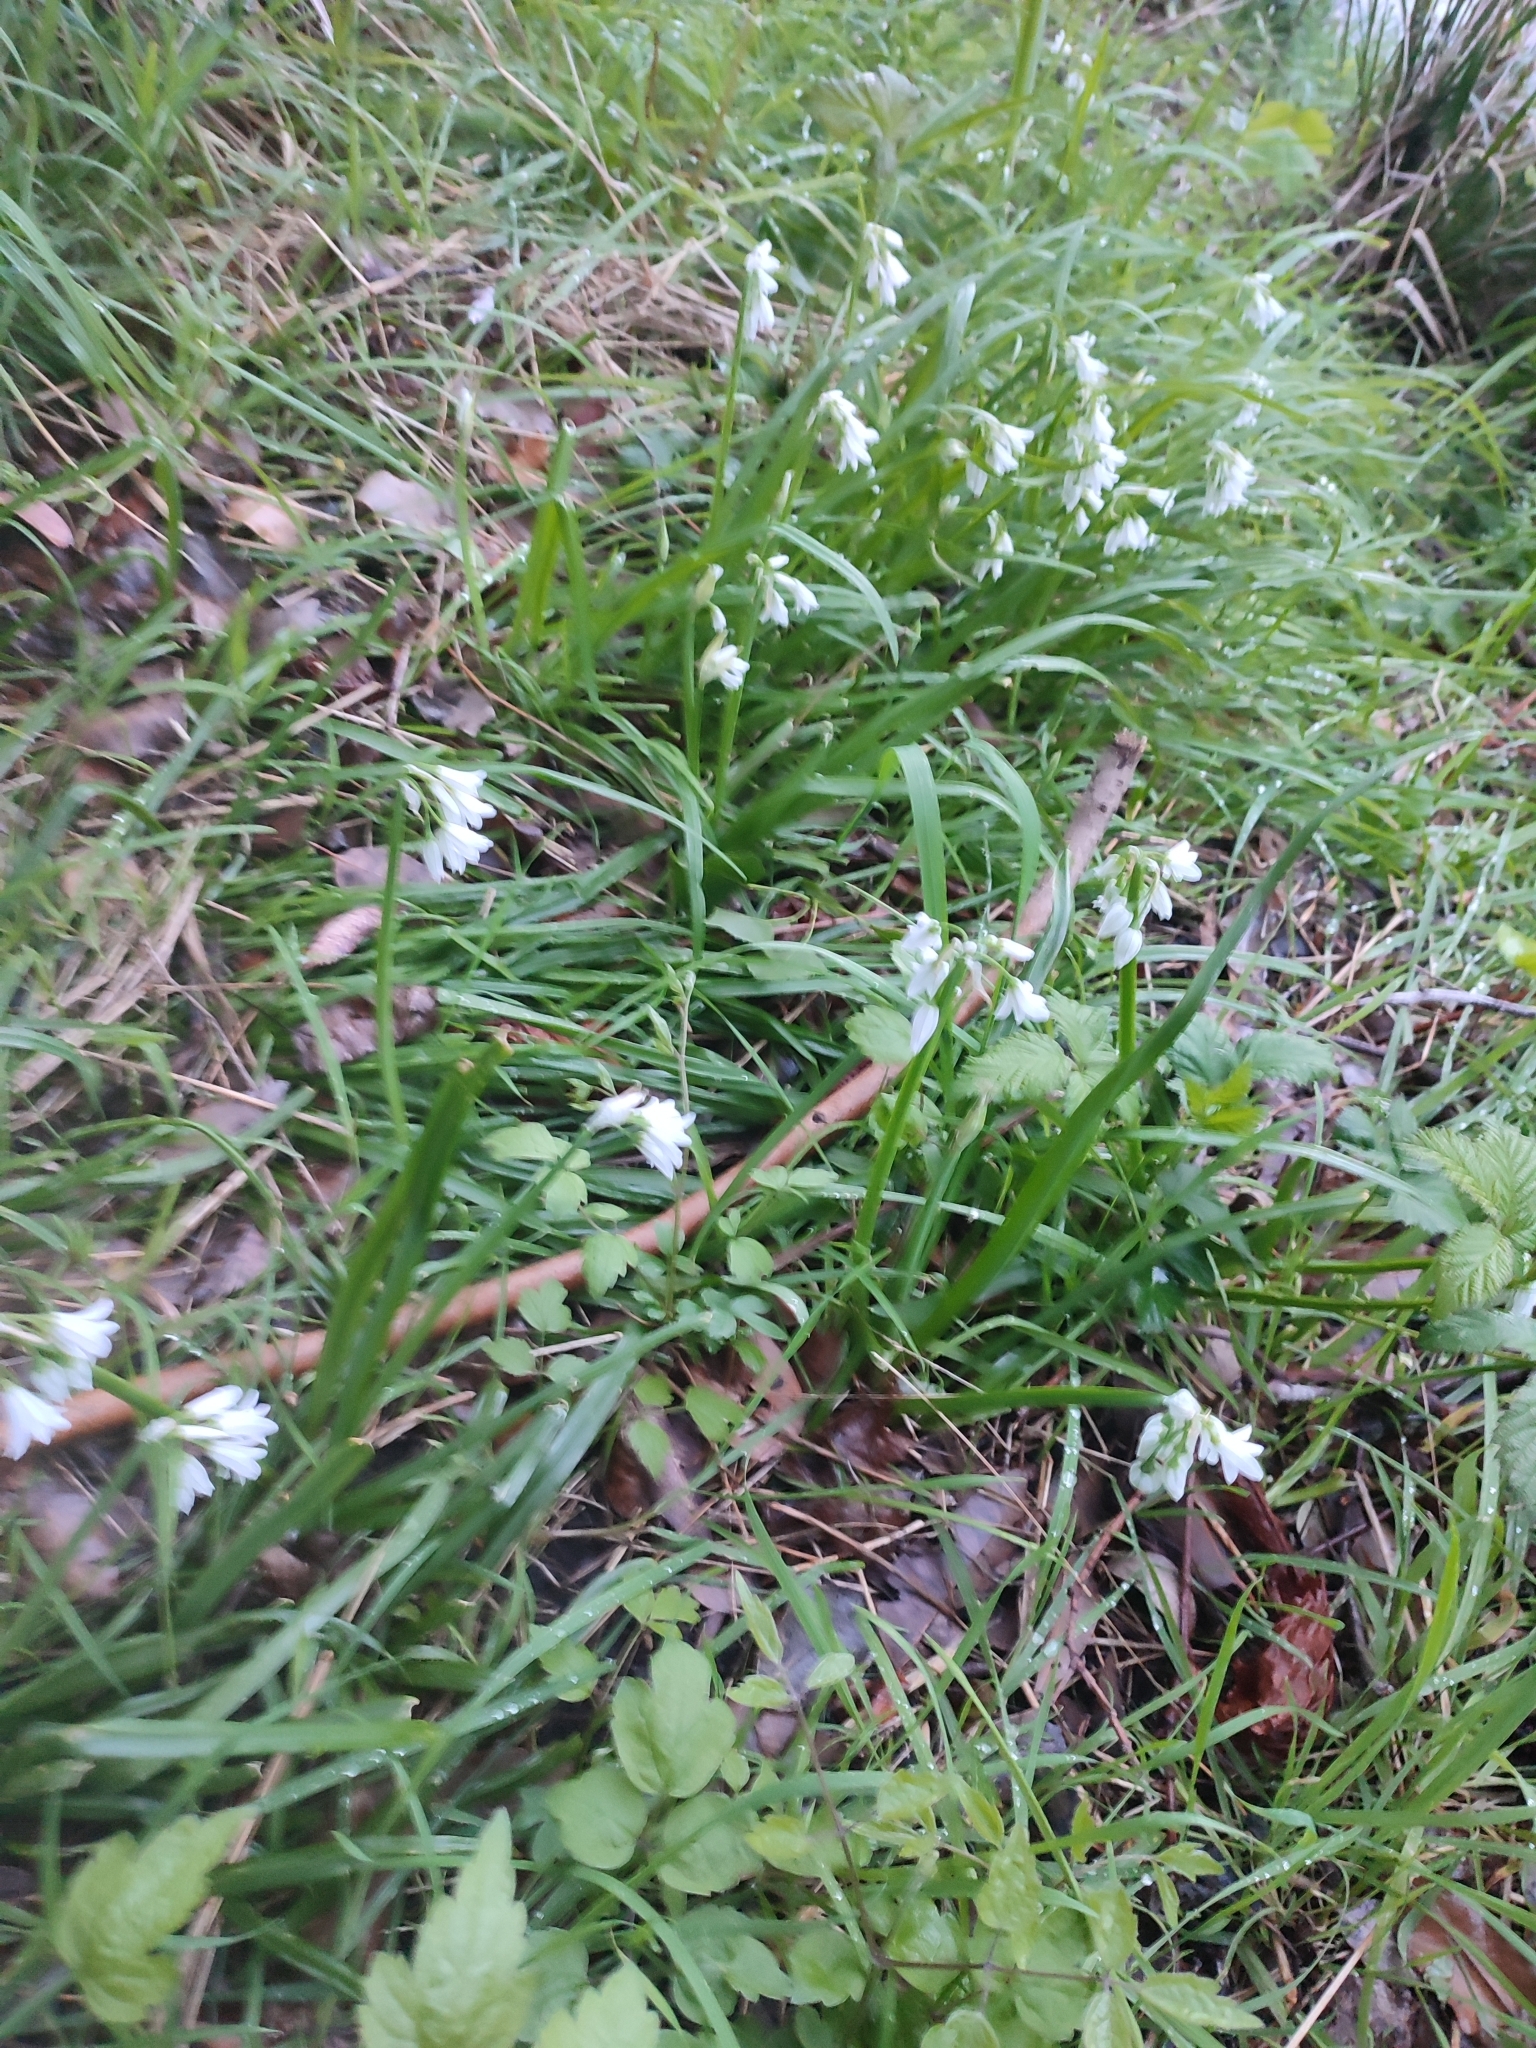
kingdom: Plantae
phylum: Tracheophyta
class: Liliopsida
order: Asparagales
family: Amaryllidaceae
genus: Allium
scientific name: Allium triquetrum
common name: Three-cornered garlic
